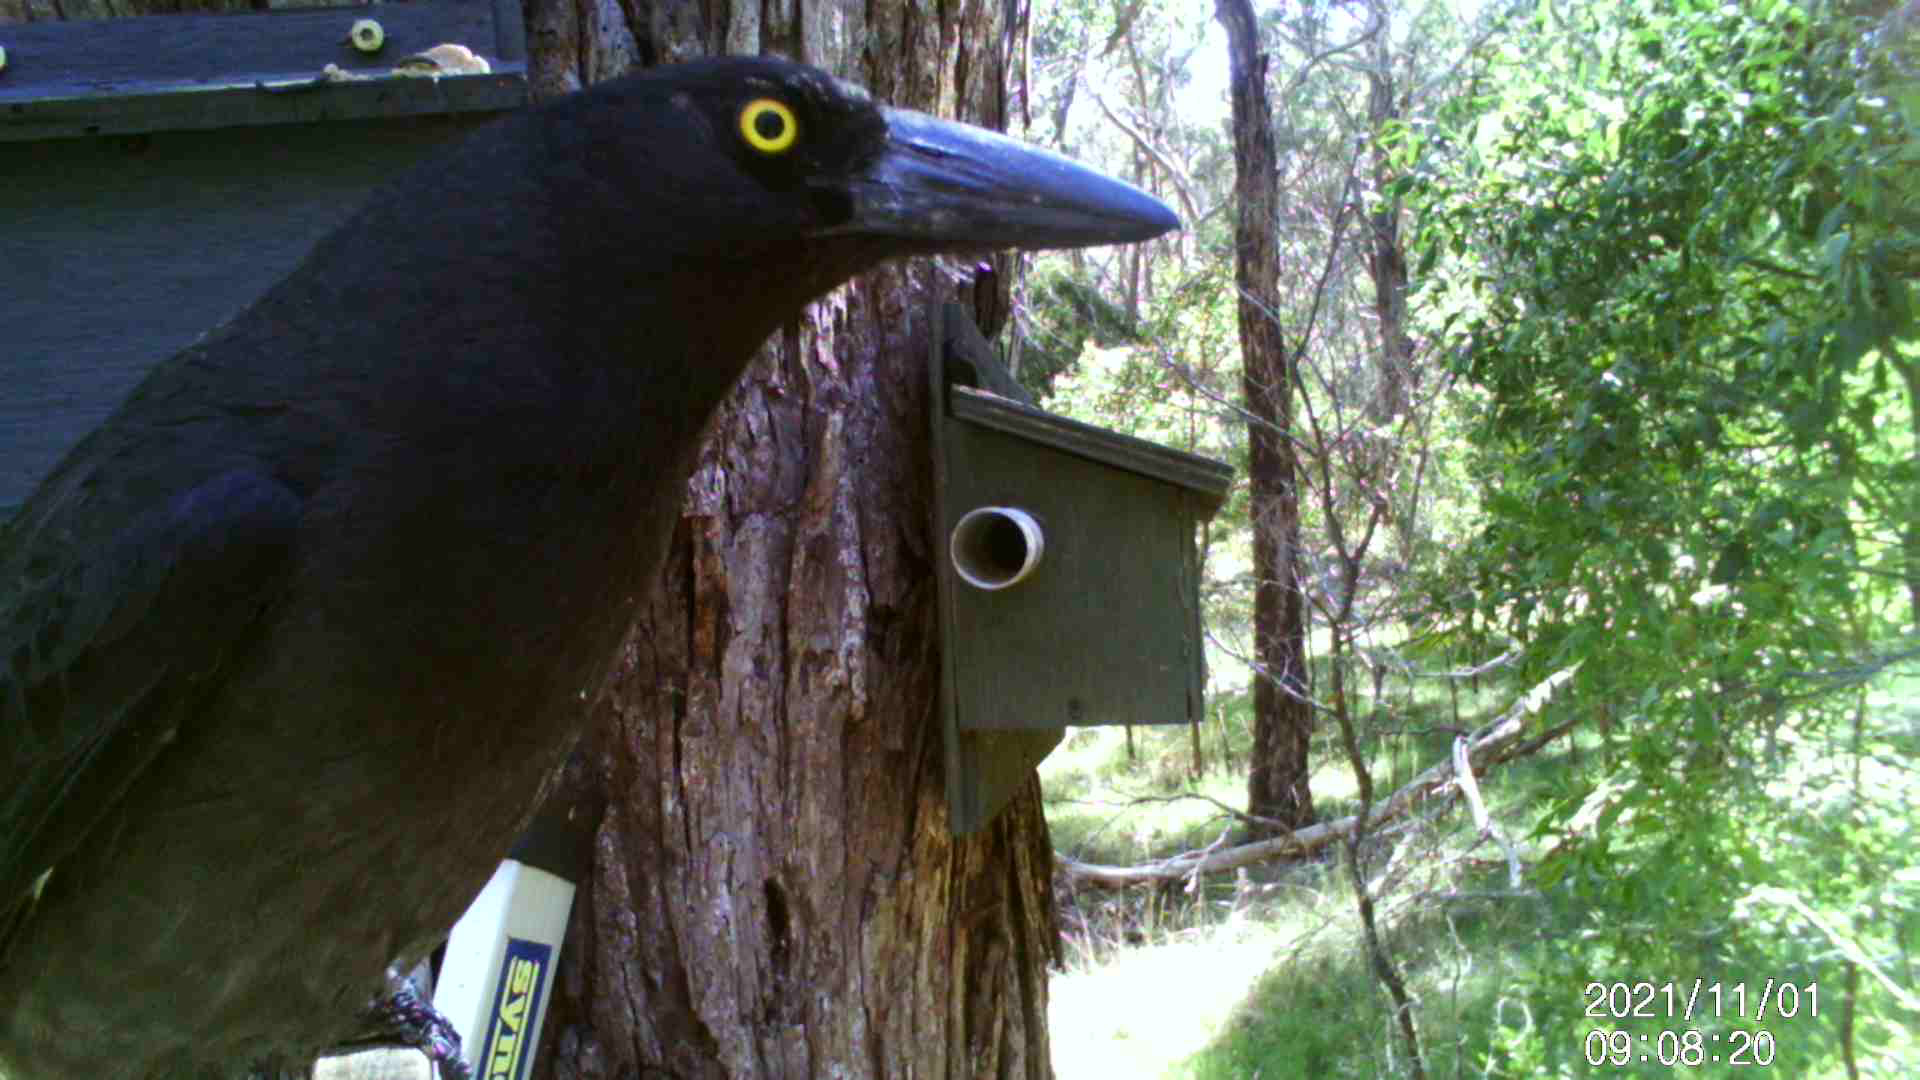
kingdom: Animalia
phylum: Chordata
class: Aves
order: Passeriformes
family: Cracticidae
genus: Strepera
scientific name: Strepera graculina
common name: Pied currawong
